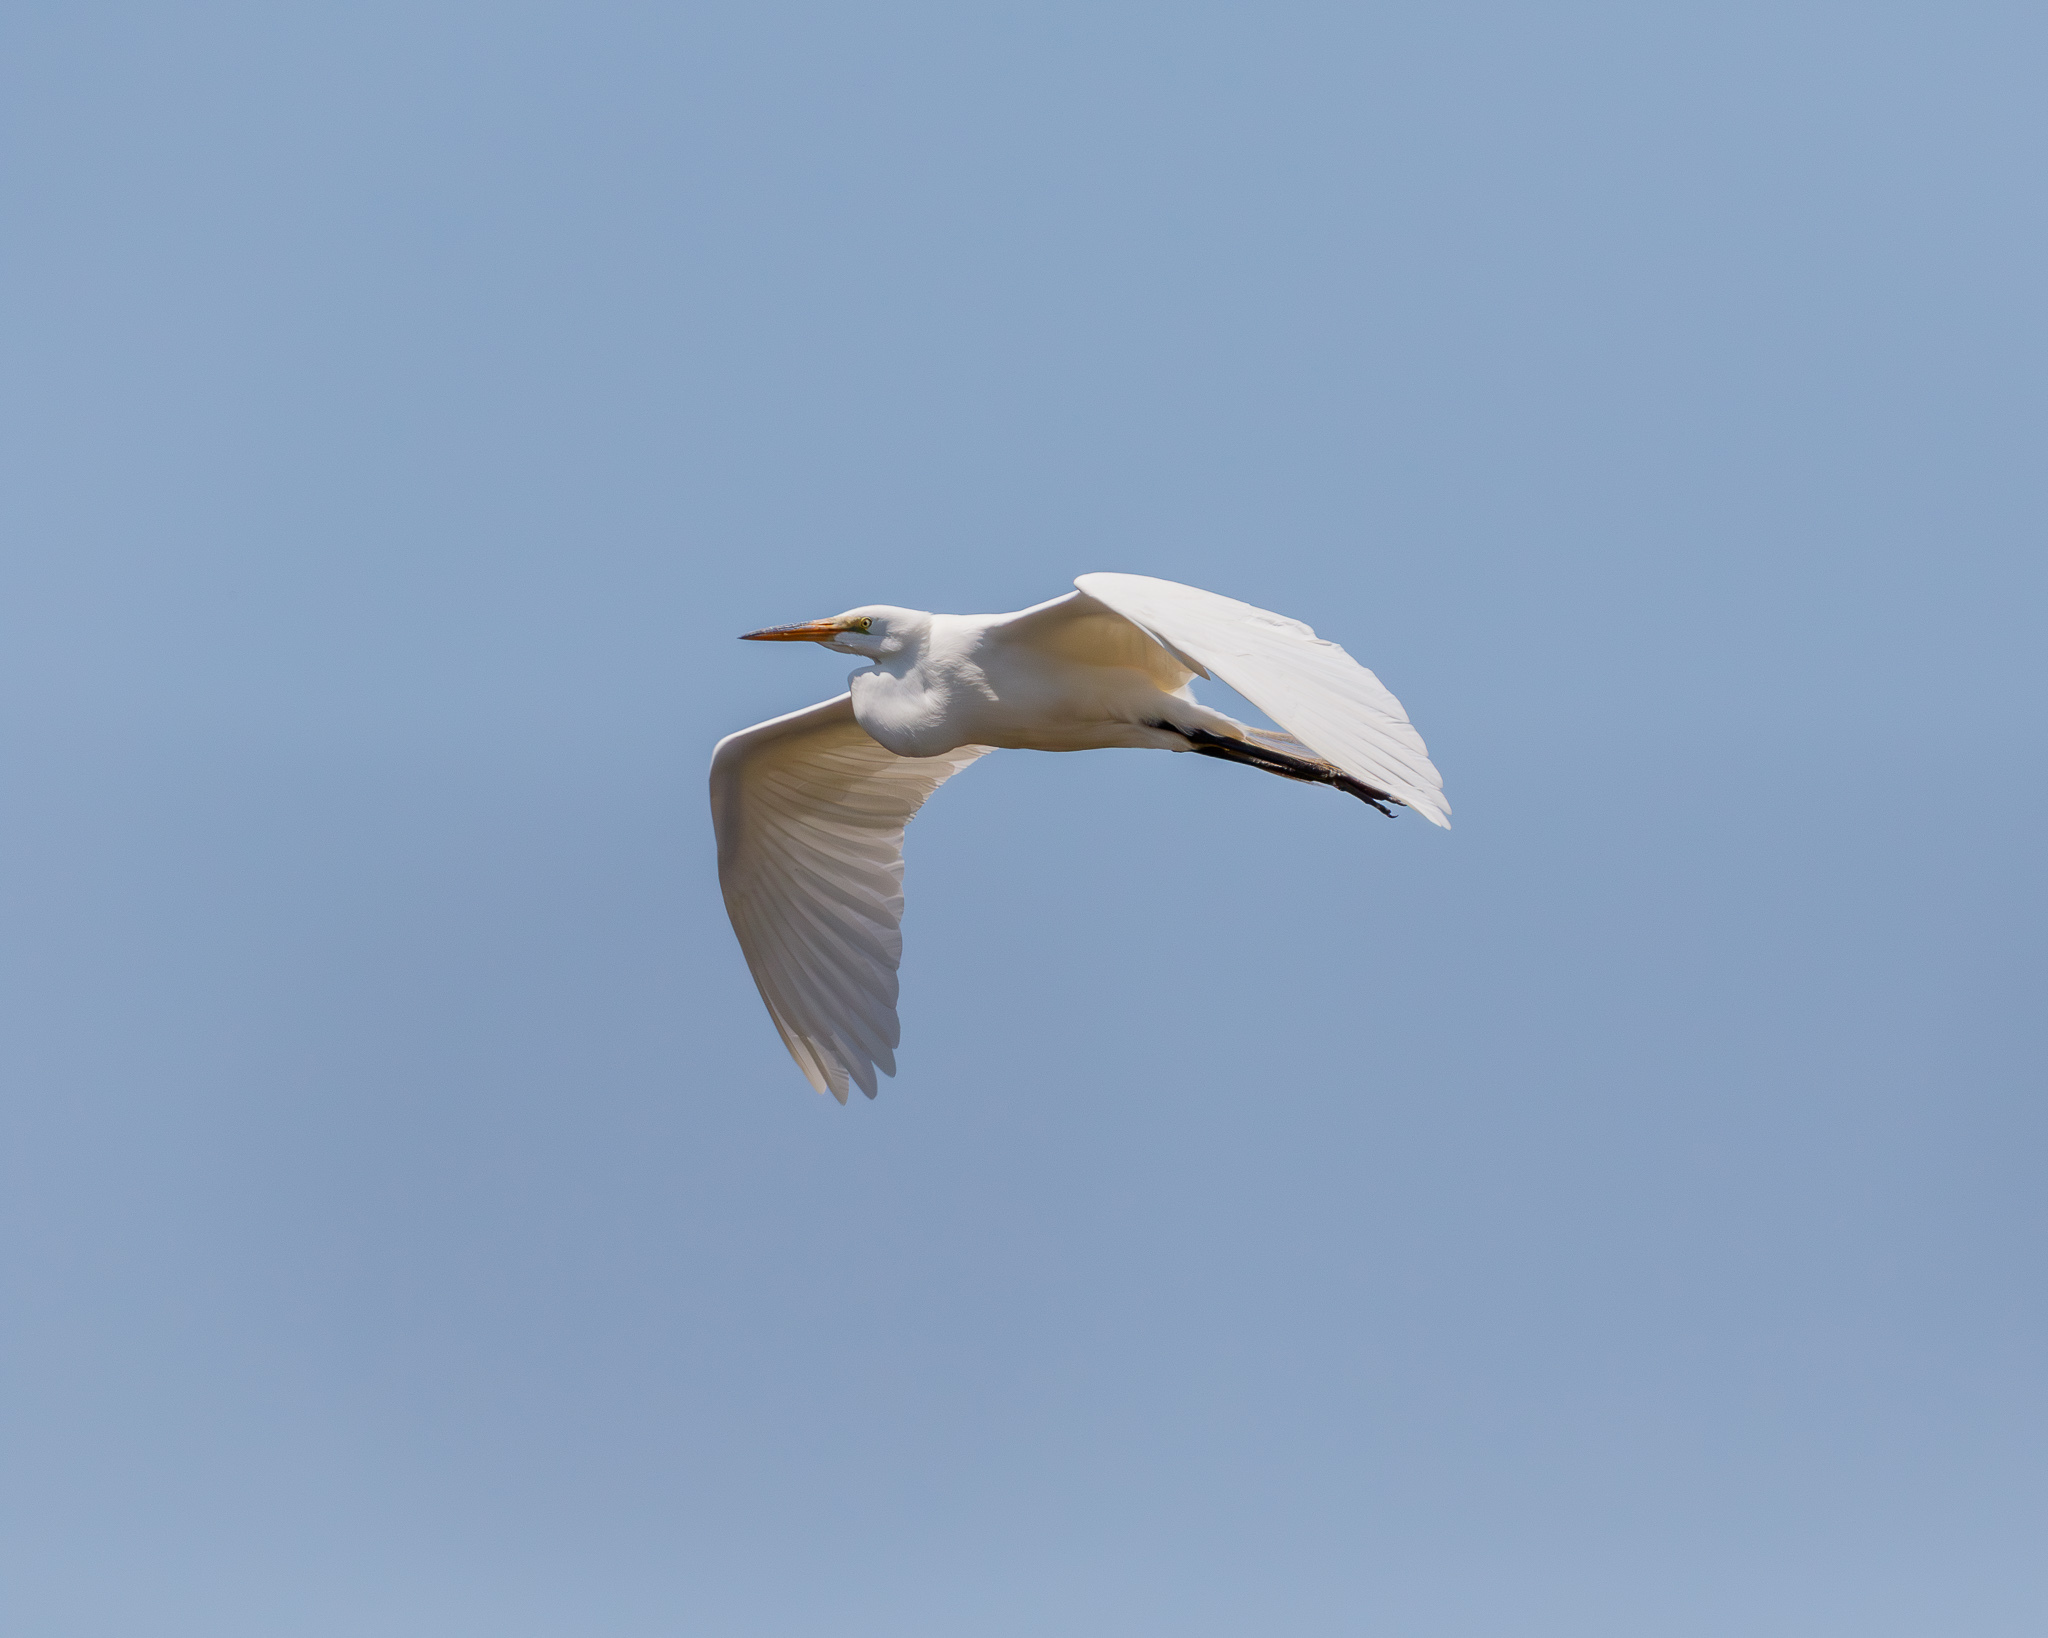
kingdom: Animalia
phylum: Chordata
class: Aves
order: Pelecaniformes
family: Ardeidae
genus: Ardea
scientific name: Ardea alba
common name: Great egret
